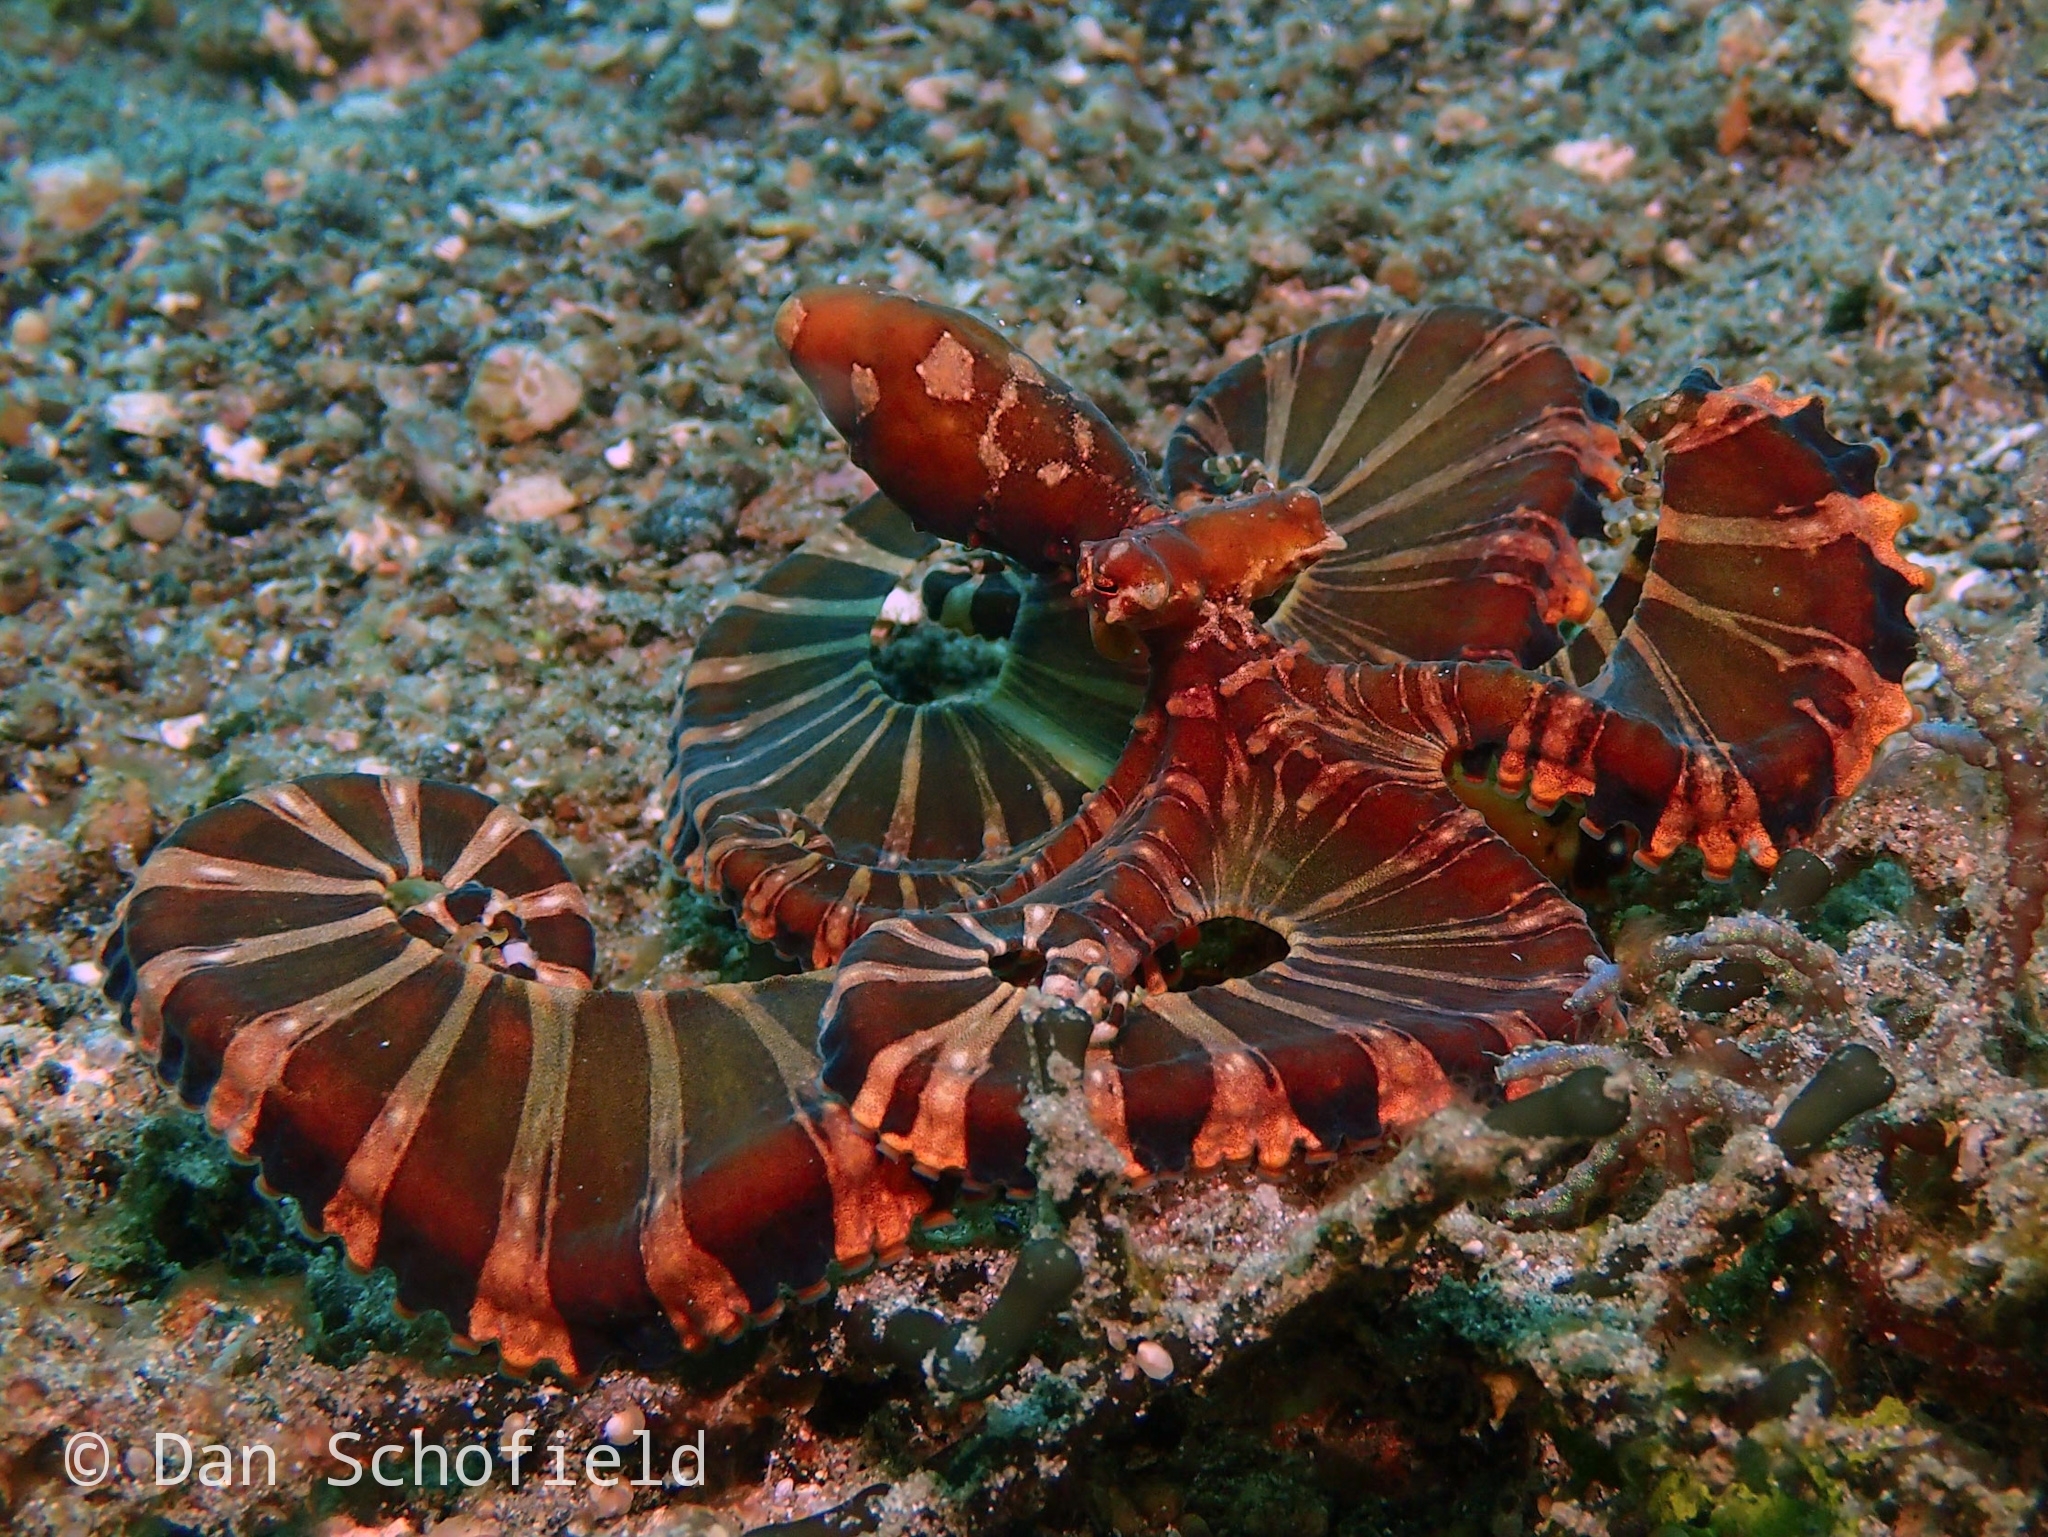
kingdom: Animalia
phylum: Mollusca
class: Cephalopoda
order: Octopoda
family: Octopodidae
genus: Wunderpus
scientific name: Wunderpus photogenicus
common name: Wunderpus
